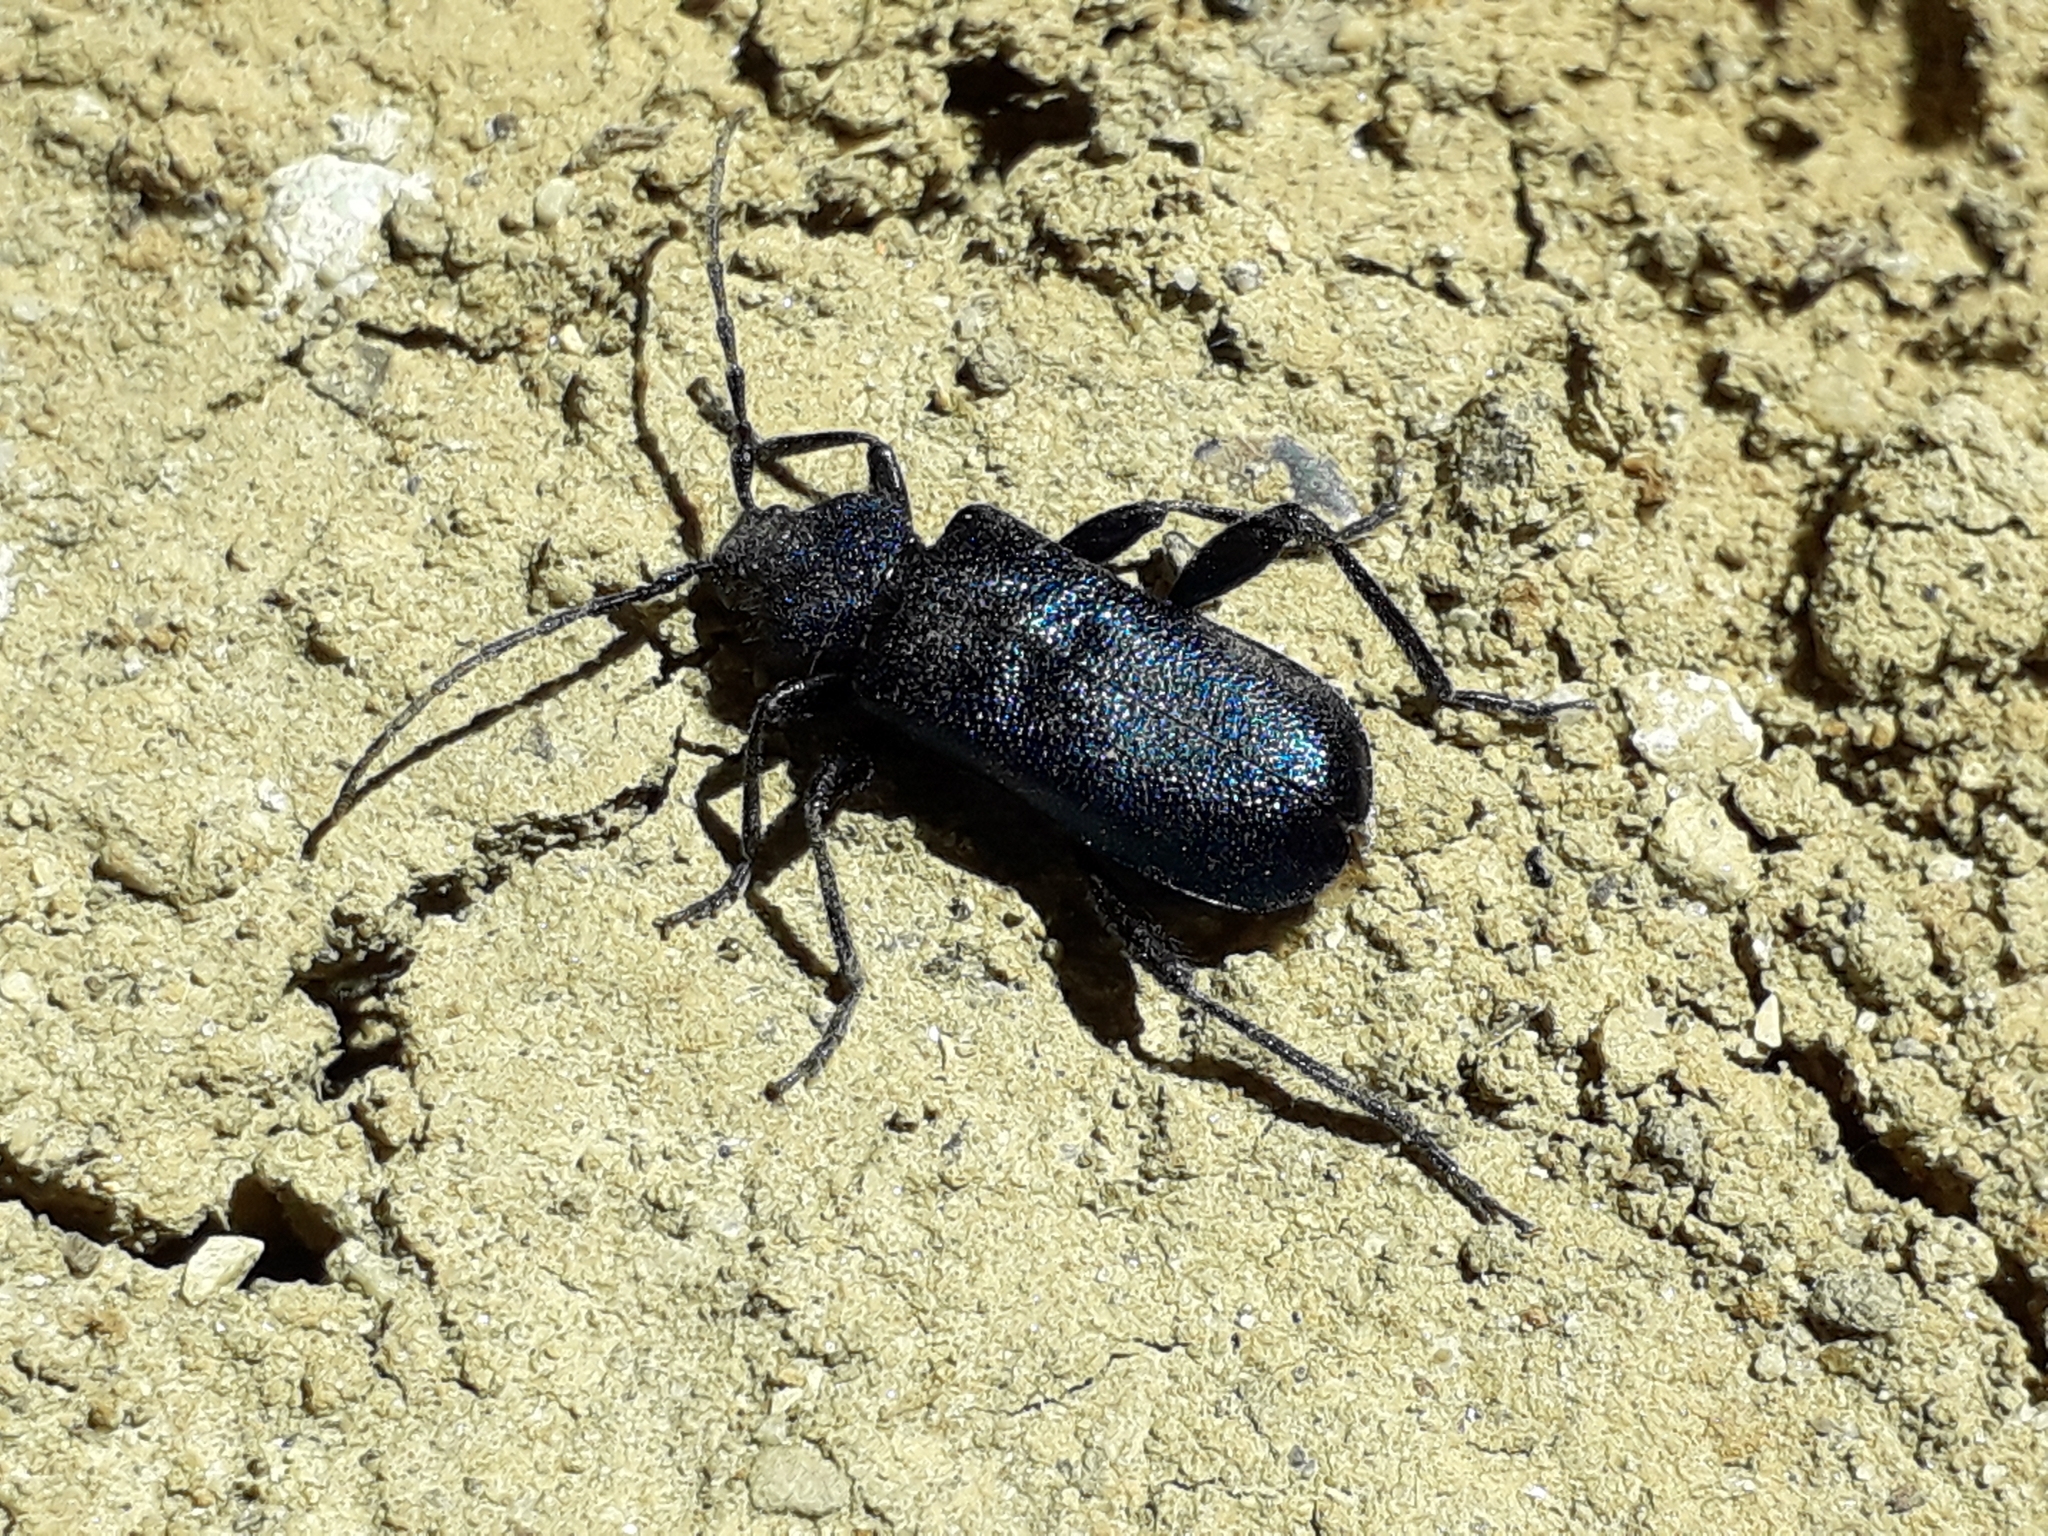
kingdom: Animalia
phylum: Arthropoda
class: Insecta
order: Coleoptera
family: Cerambycidae
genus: Callidium
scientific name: Callidium violaceum
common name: Violet tanbark beetle
